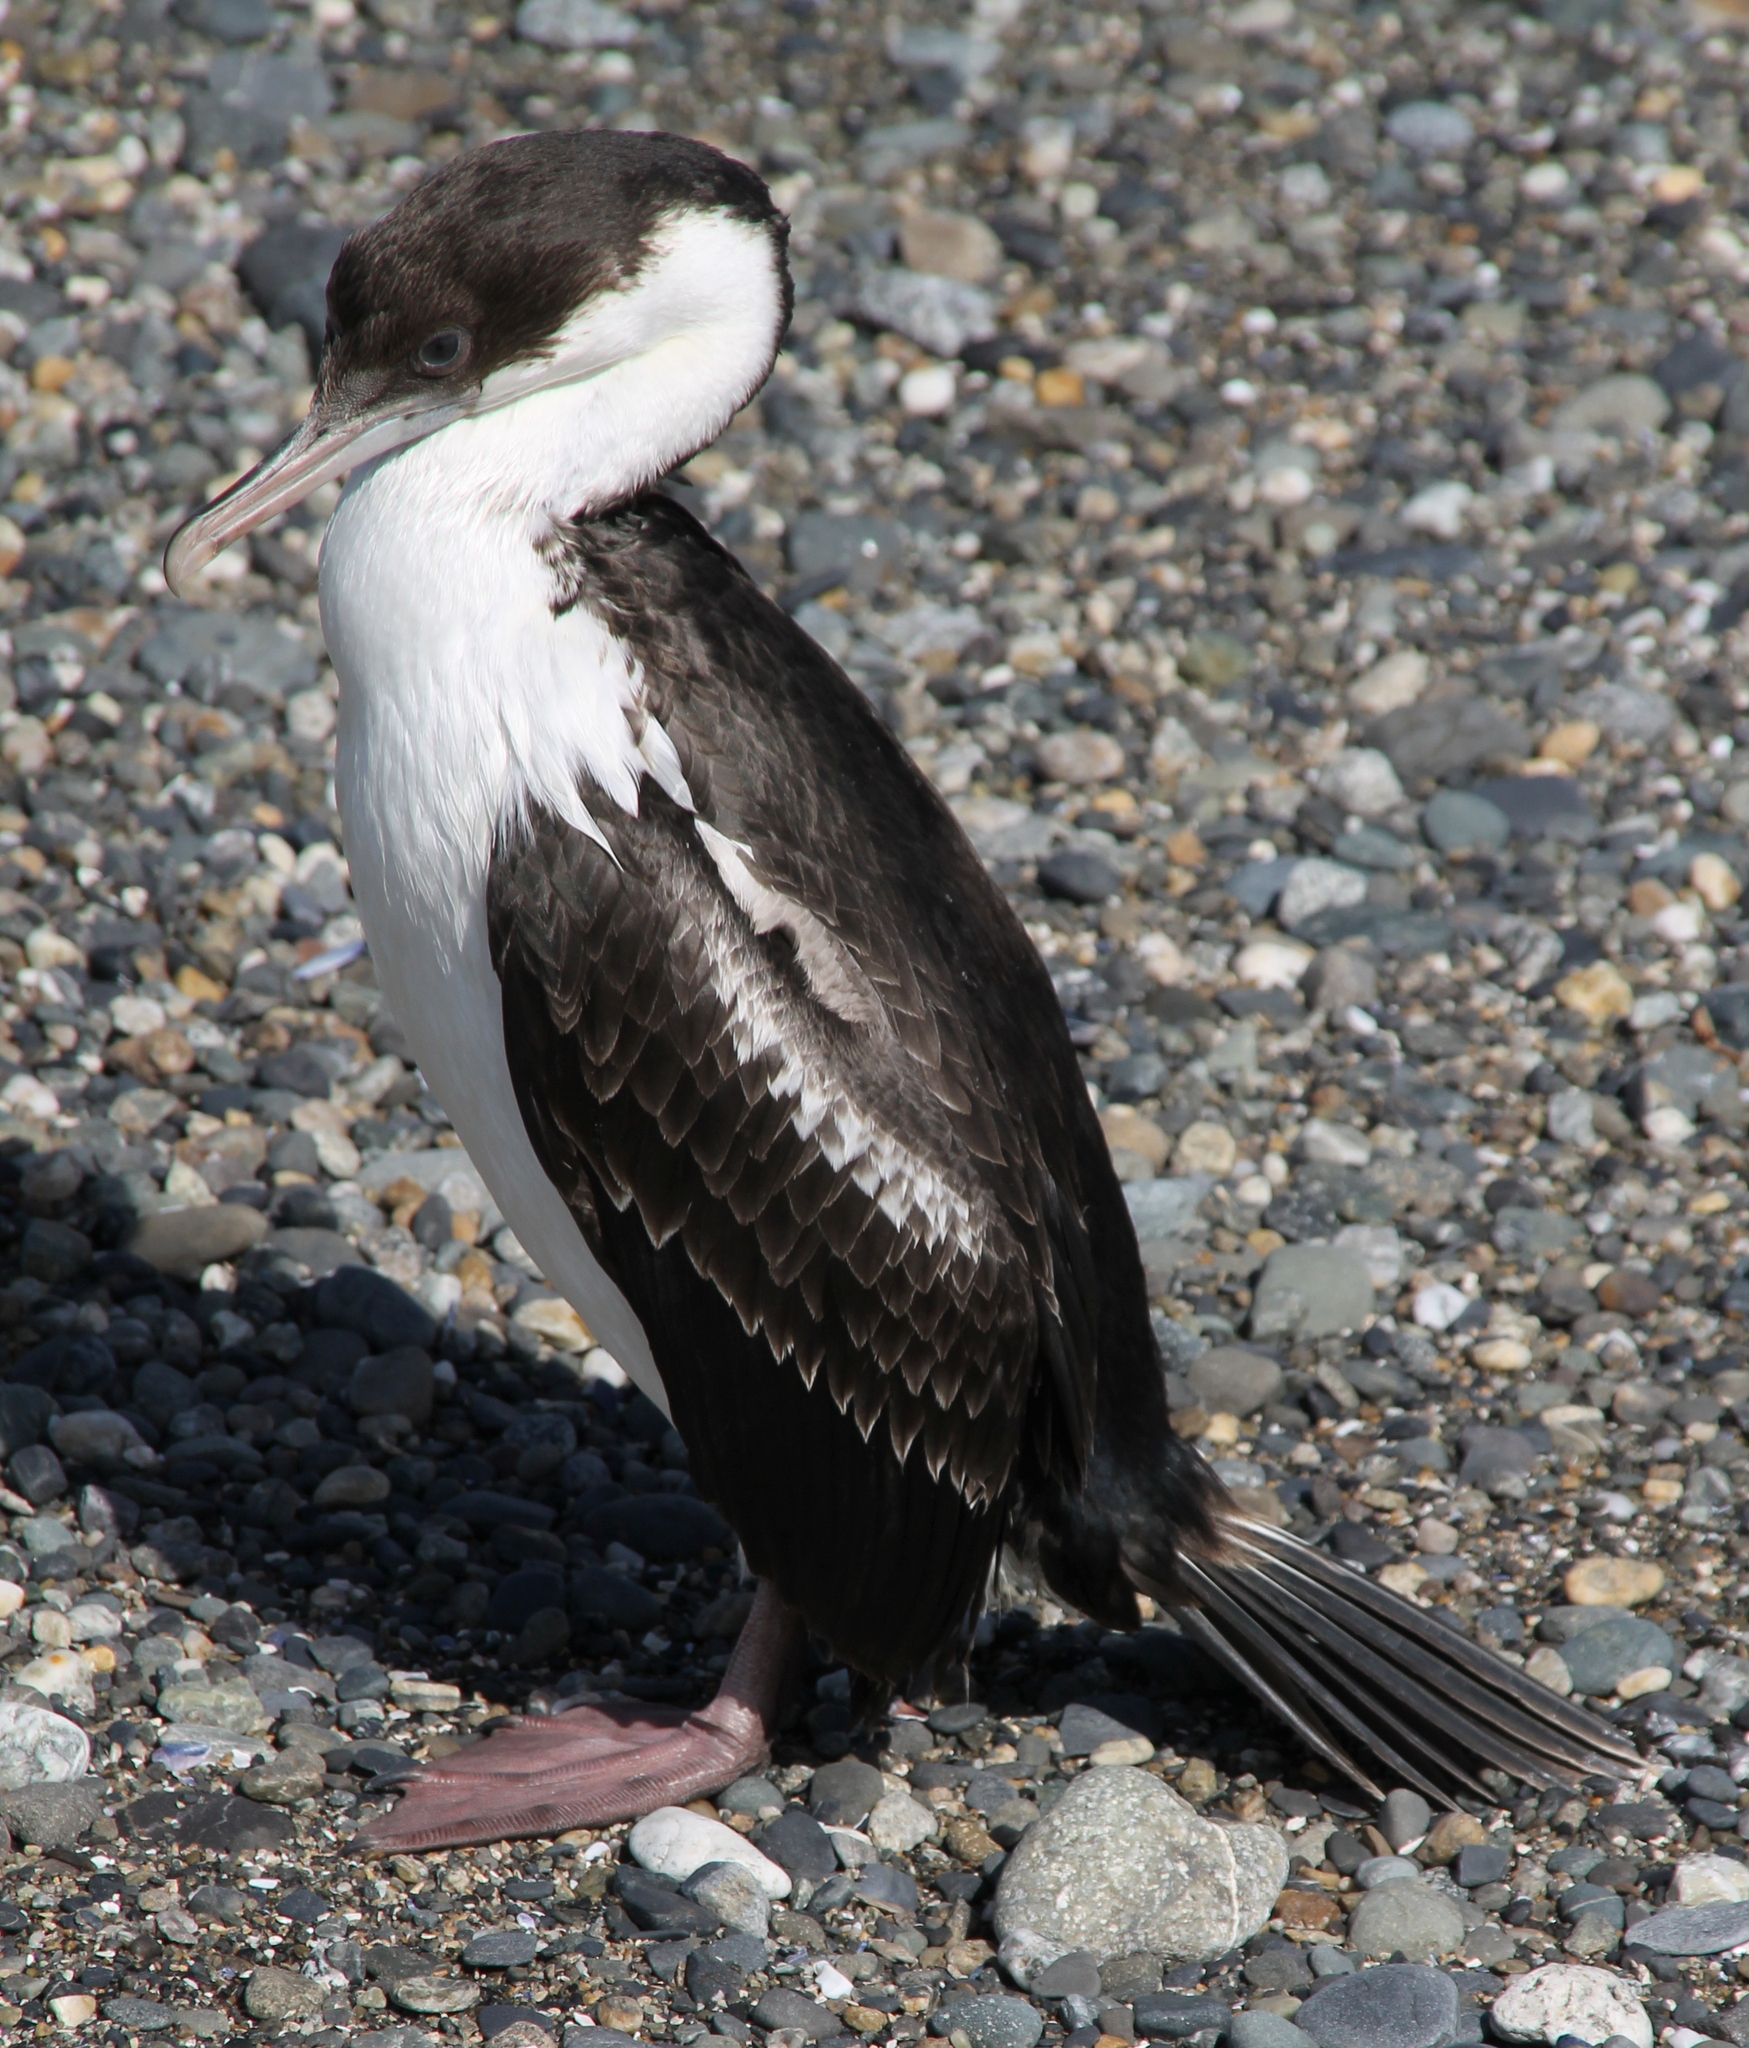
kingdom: Animalia
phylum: Chordata
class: Aves
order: Suliformes
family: Phalacrocoracidae
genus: Leucocarbo
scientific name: Leucocarbo atriceps
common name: Imperial shag
